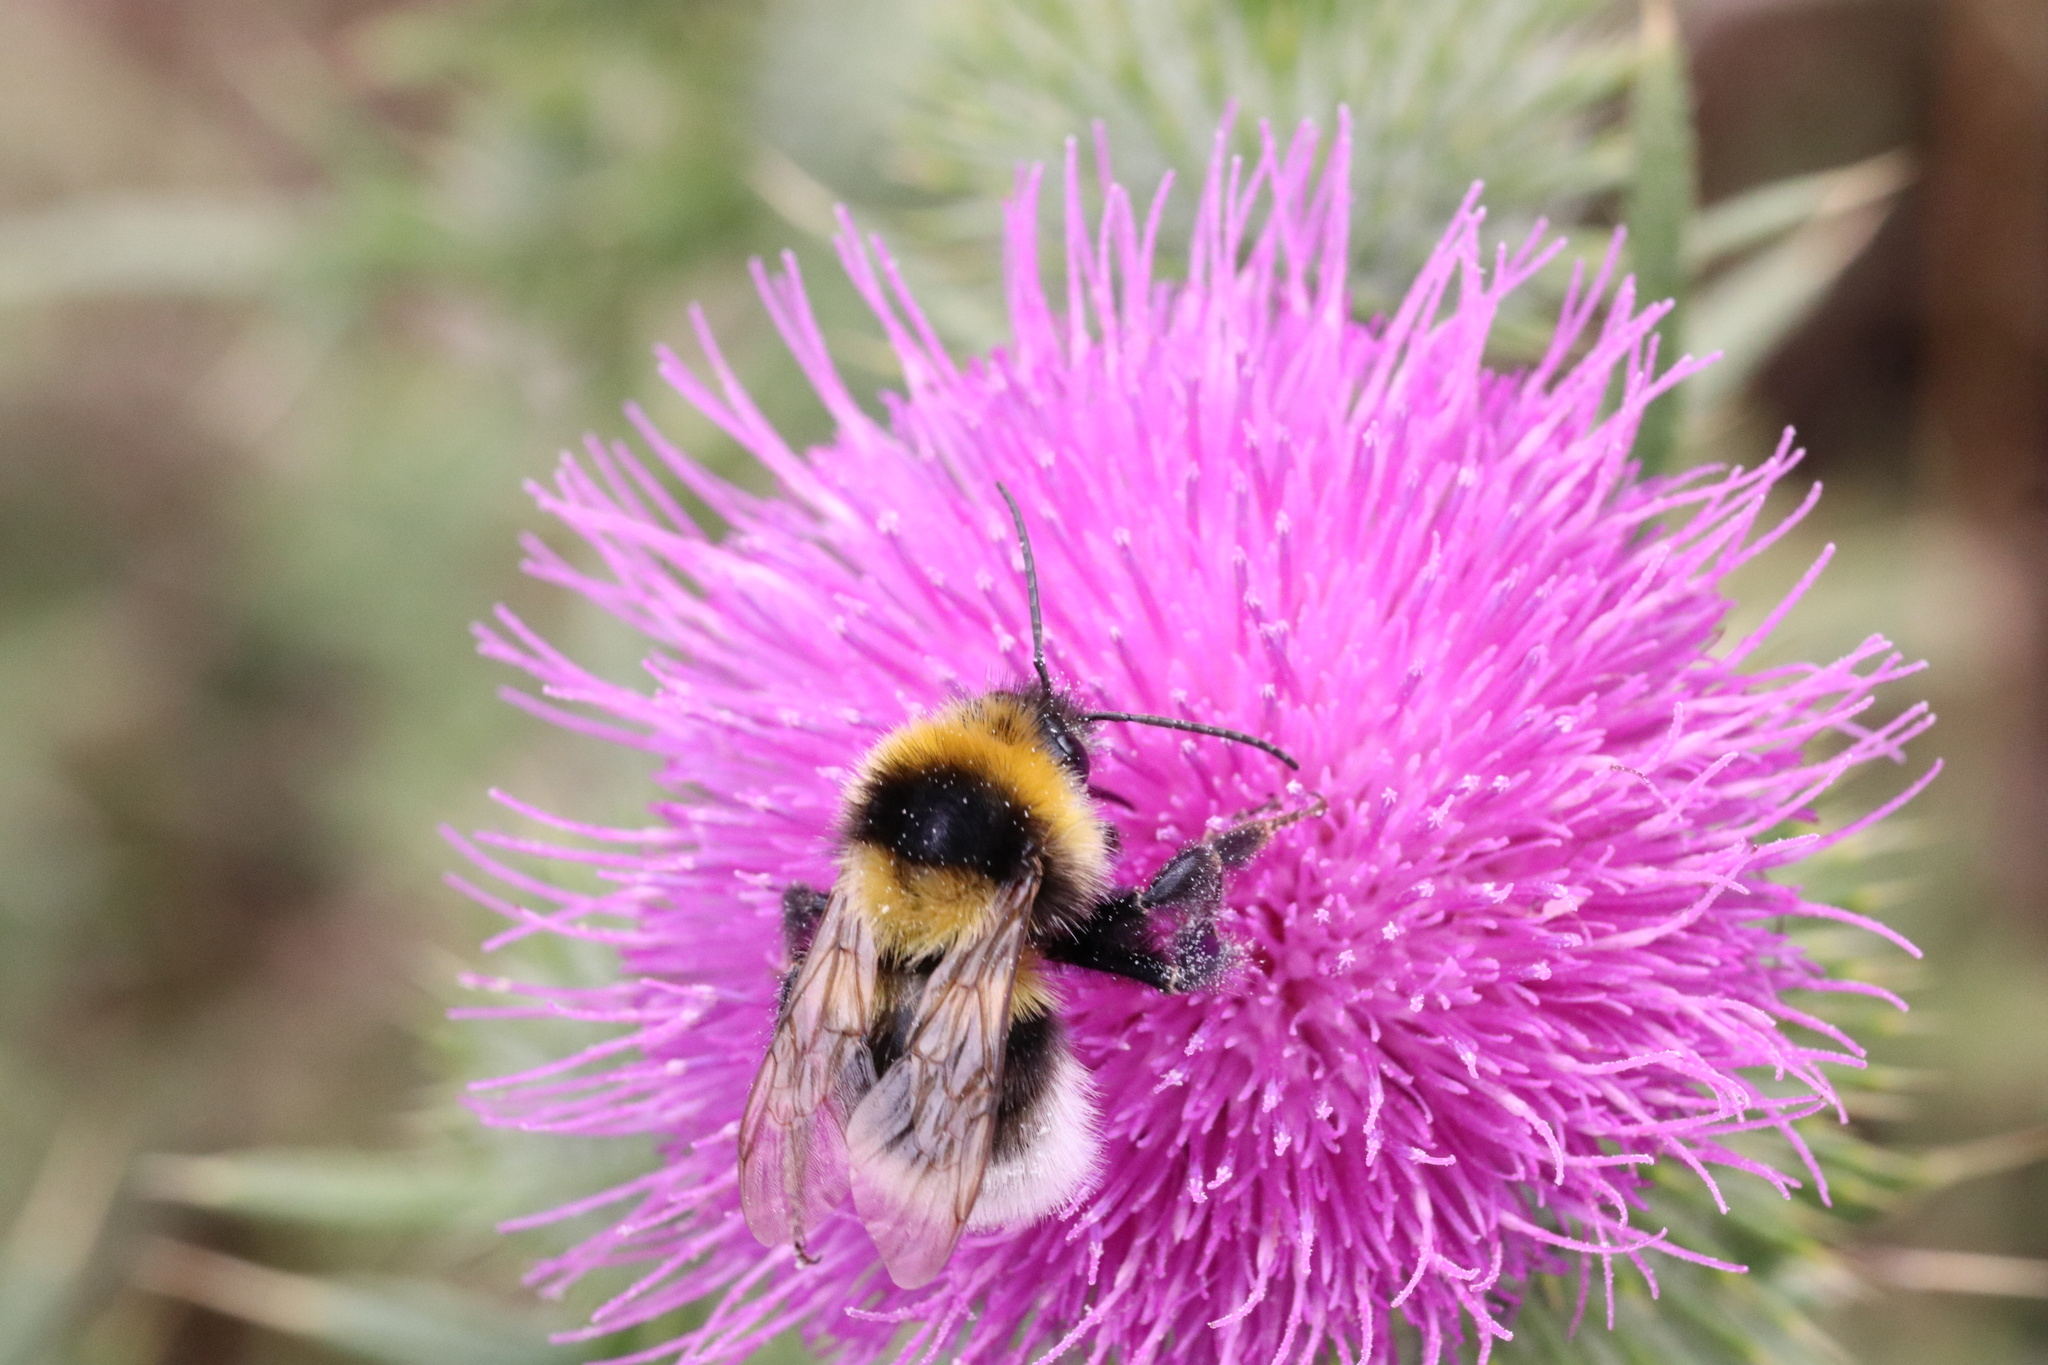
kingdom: Animalia
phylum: Arthropoda
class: Insecta
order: Hymenoptera
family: Apidae
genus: Bombus
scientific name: Bombus ruderatus
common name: Large garden bumblebee
